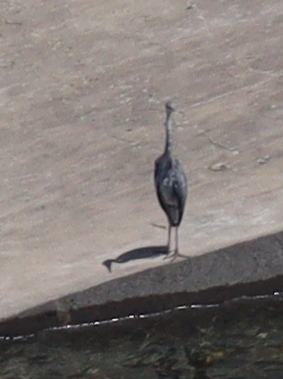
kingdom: Animalia
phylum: Chordata
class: Aves
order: Pelecaniformes
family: Ardeidae
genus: Ardea
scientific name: Ardea cinerea
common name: Grey heron
